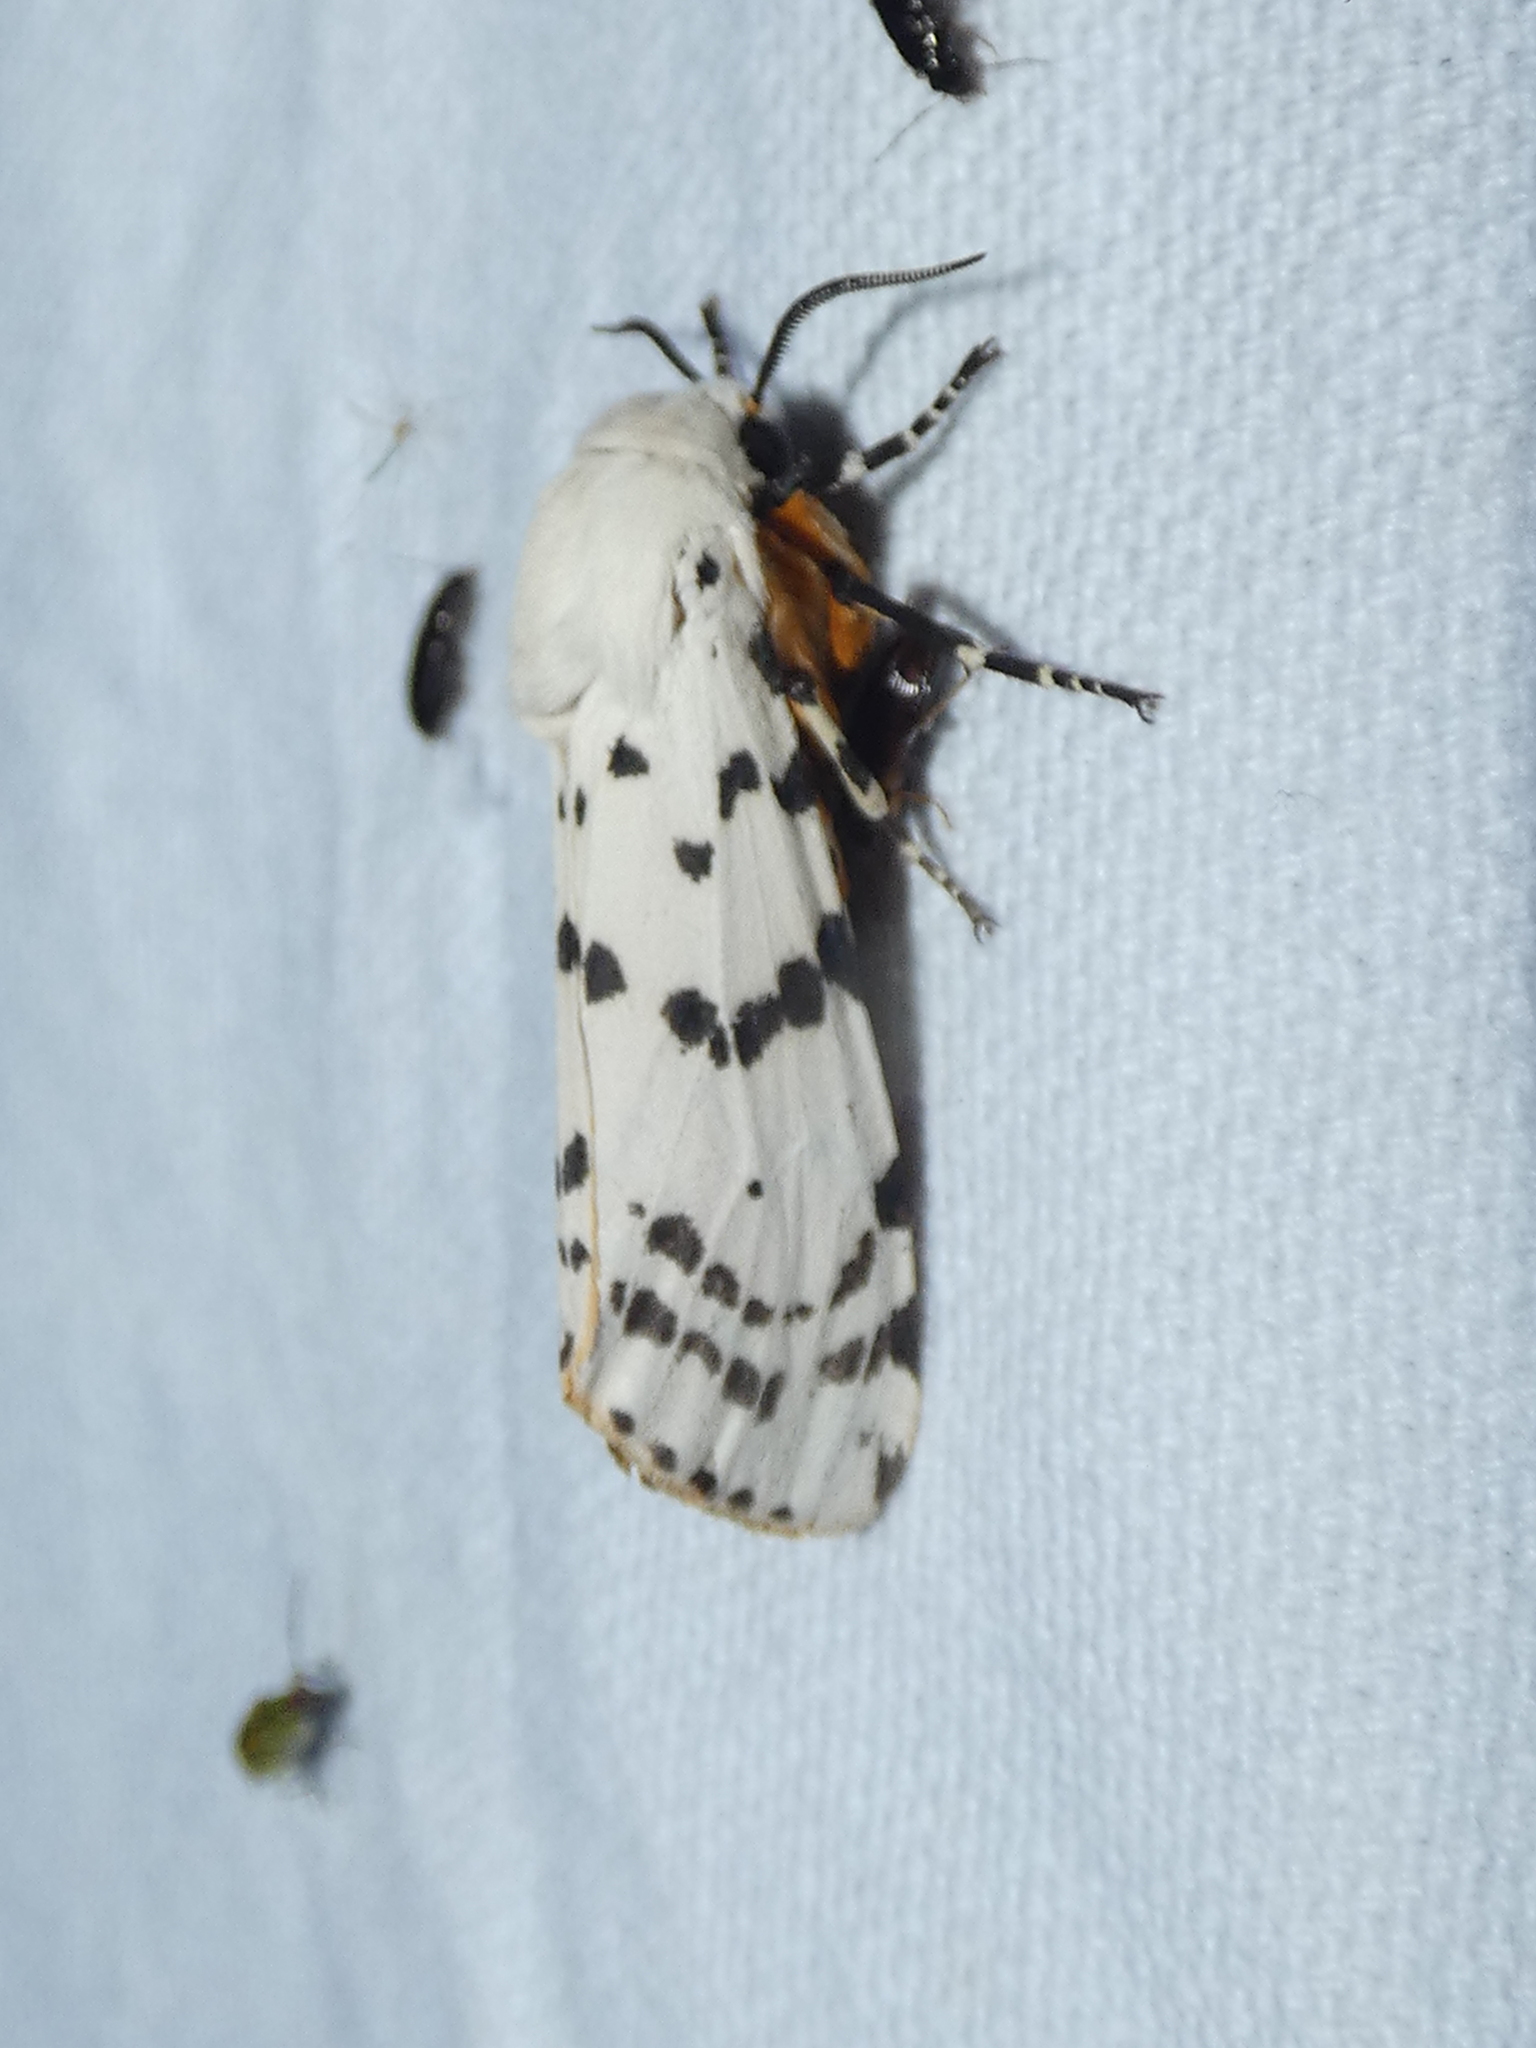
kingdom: Animalia
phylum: Arthropoda
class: Insecta
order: Lepidoptera
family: Erebidae
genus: Estigmene
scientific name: Estigmene acrea
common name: Salt marsh moth
